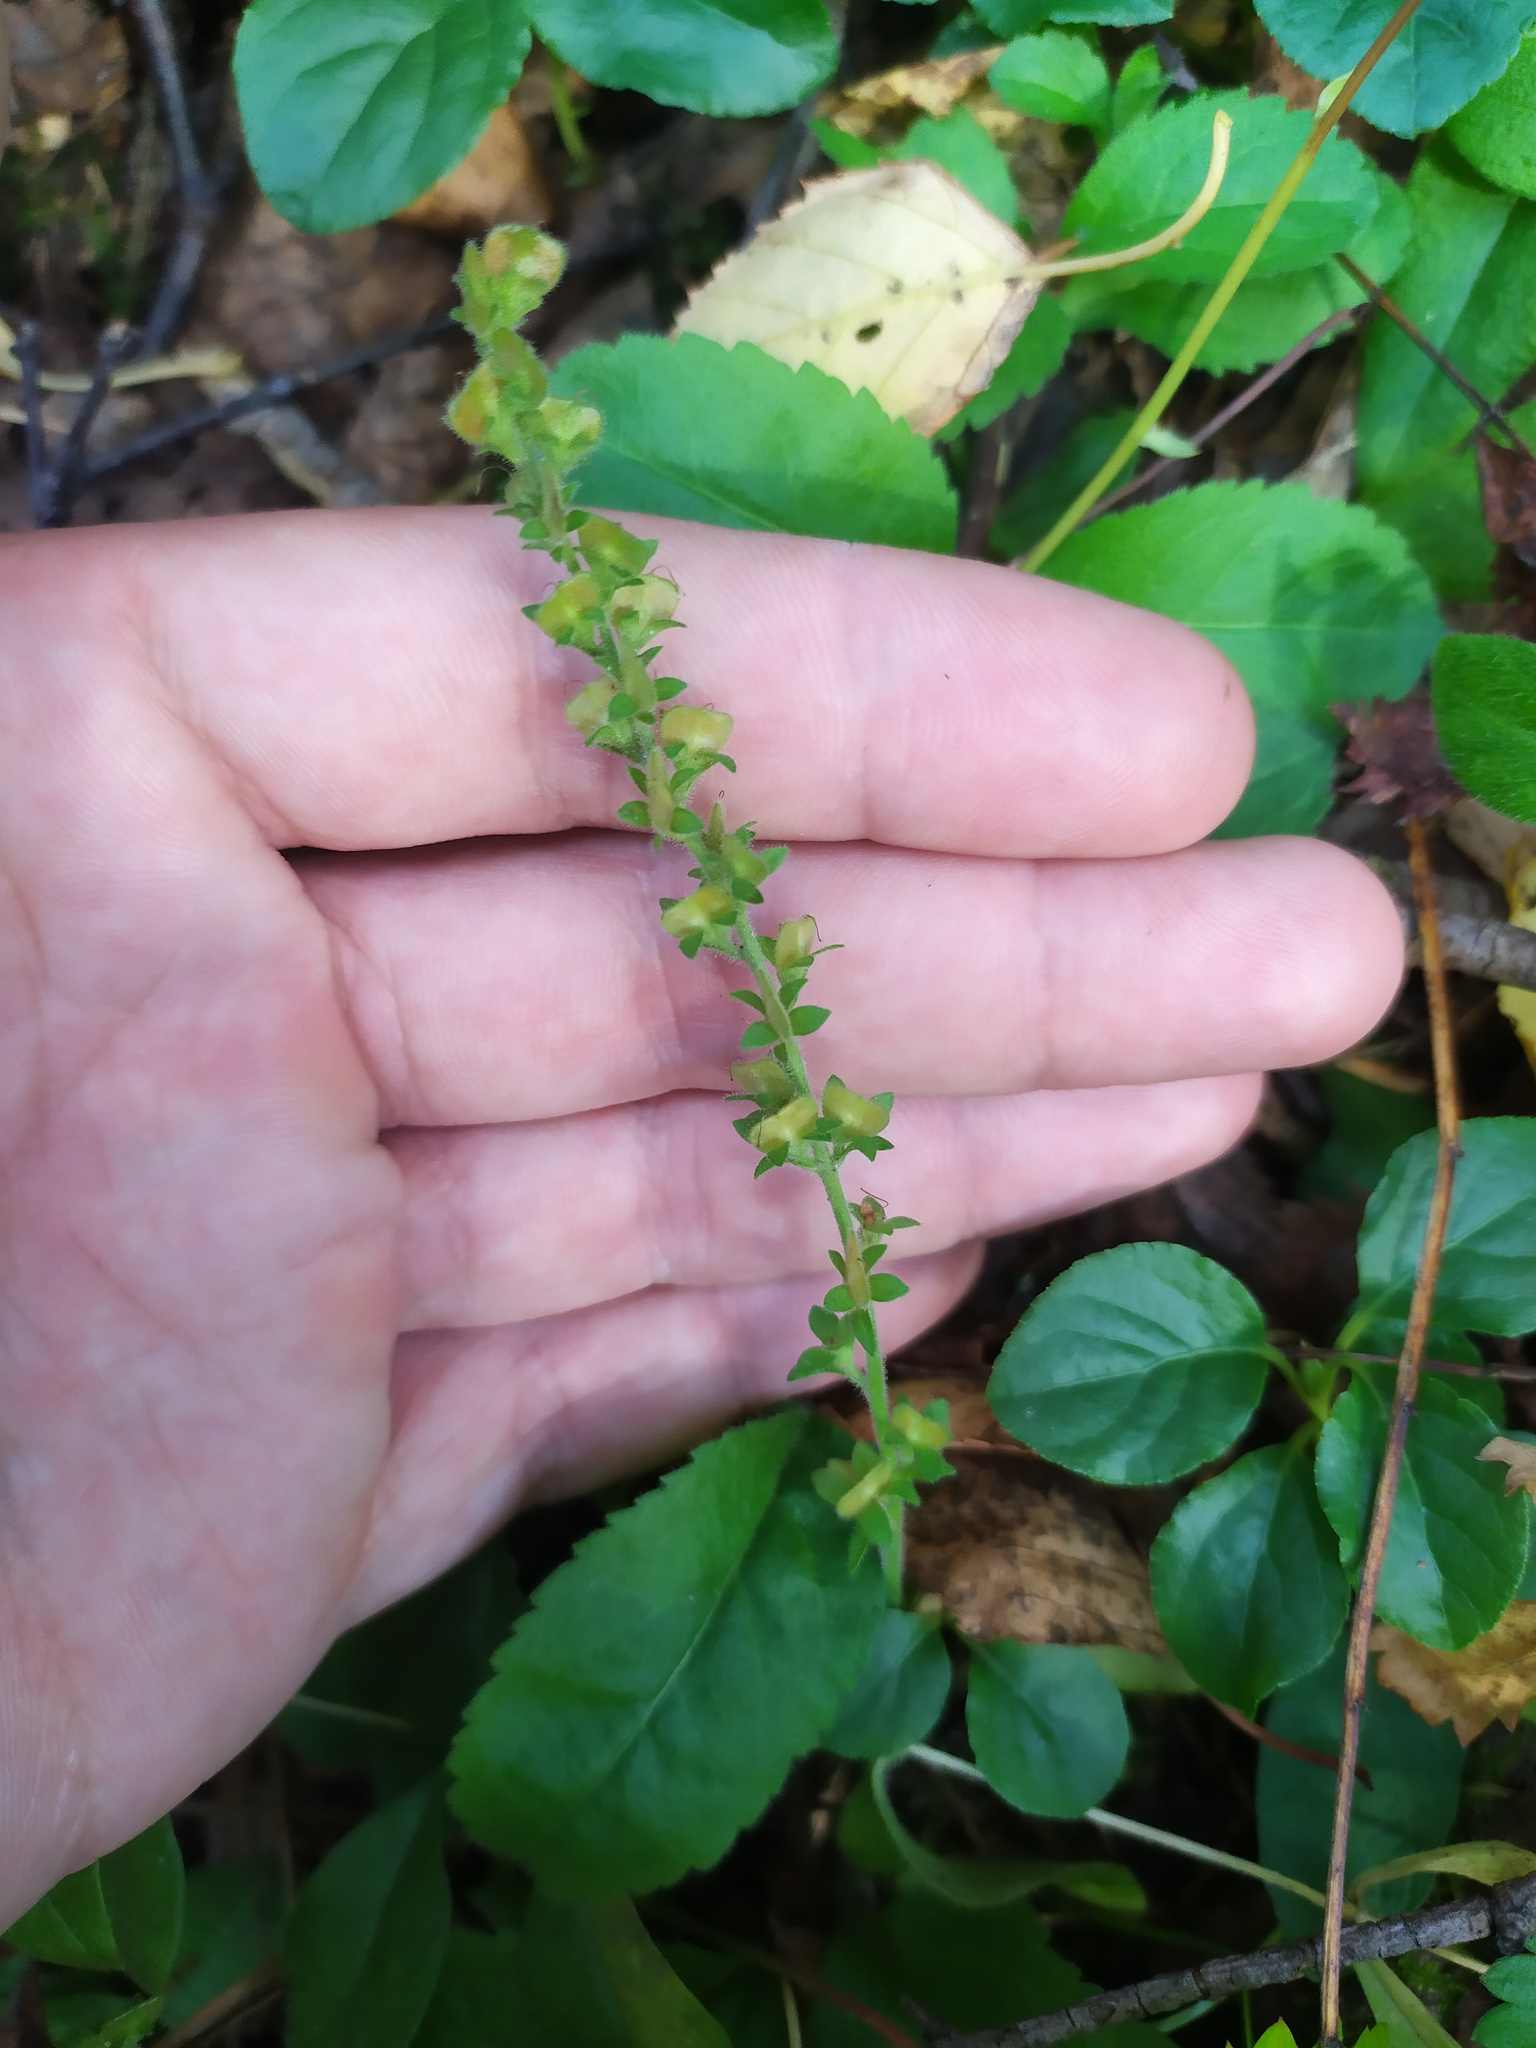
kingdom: Plantae
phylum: Tracheophyta
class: Magnoliopsida
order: Lamiales
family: Plantaginaceae
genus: Veronica
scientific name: Veronica officinalis
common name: Common speedwell
